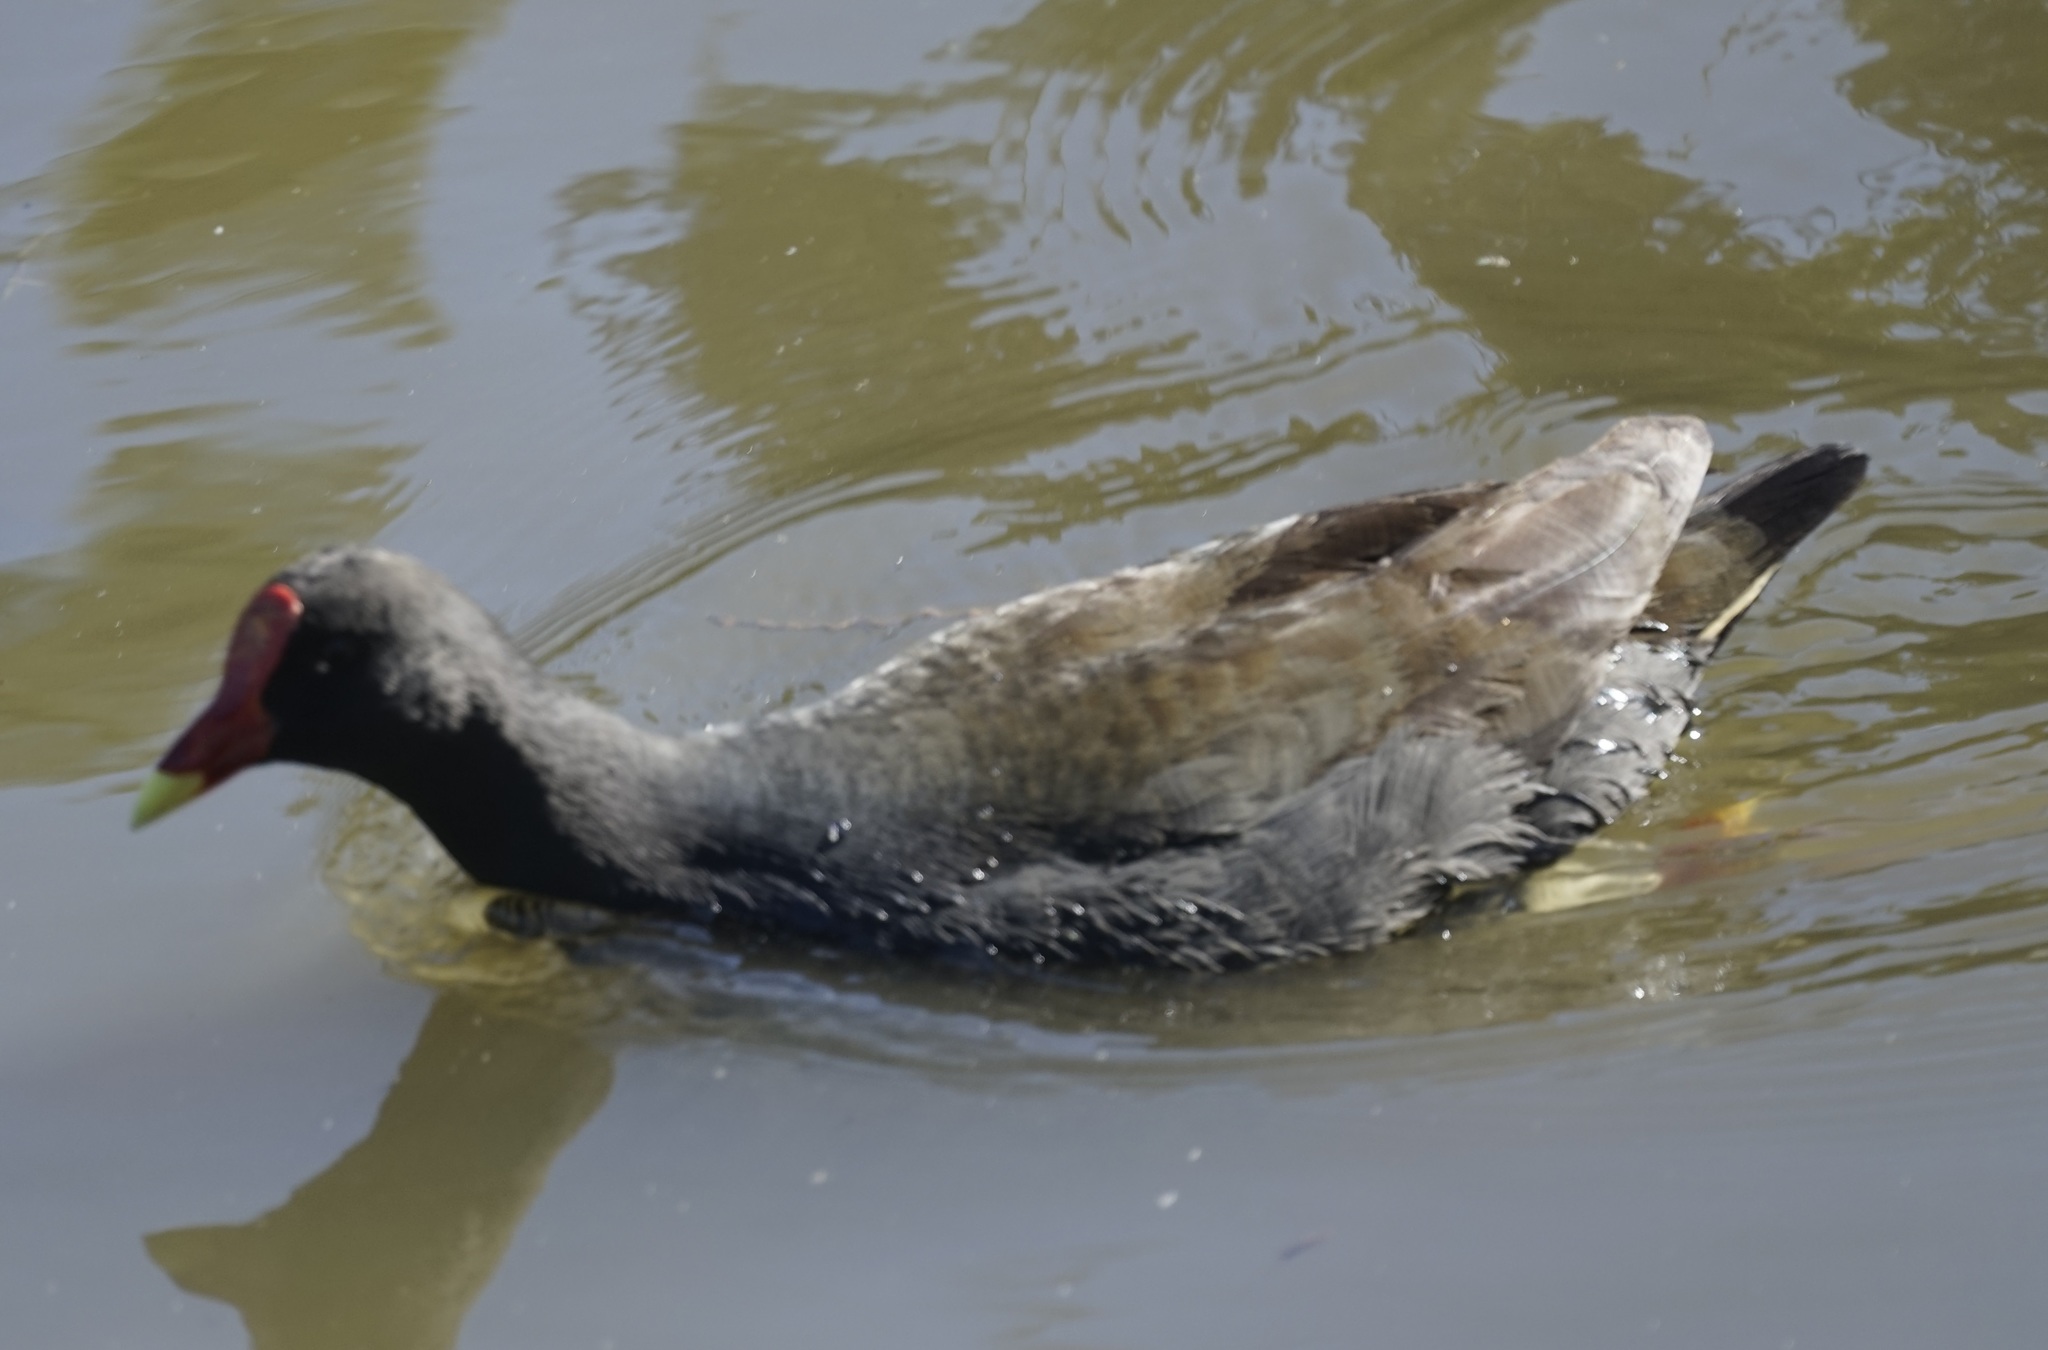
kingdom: Animalia
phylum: Chordata
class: Aves
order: Gruiformes
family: Rallidae
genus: Gallinula
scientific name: Gallinula tenebrosa
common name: Dusky moorhen
